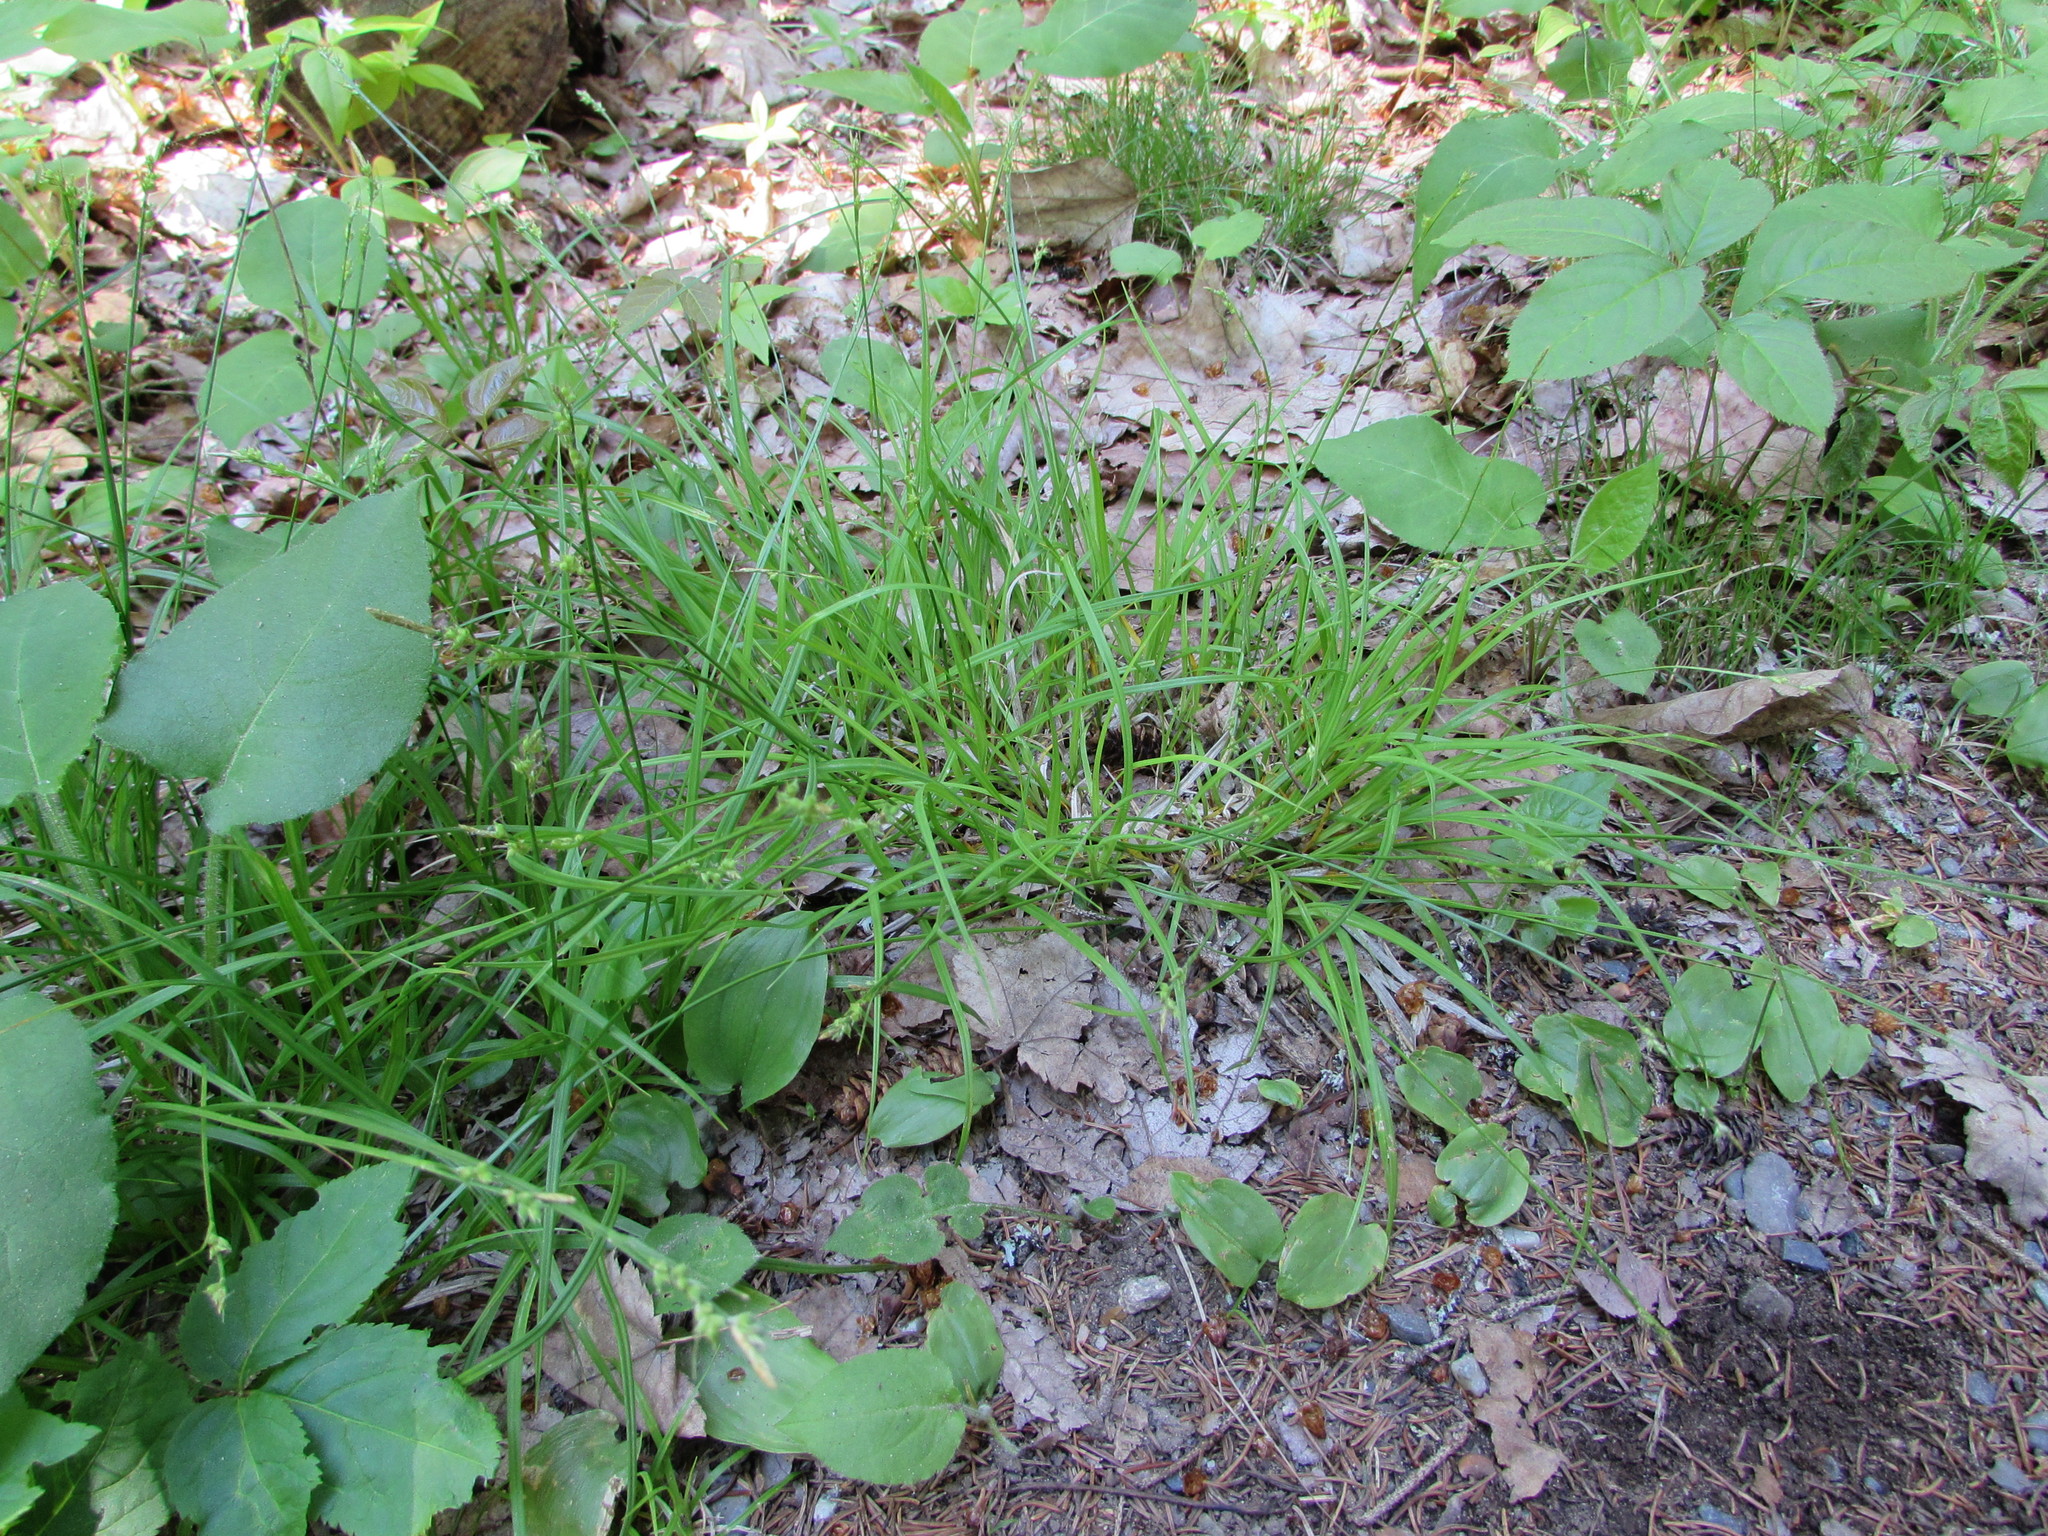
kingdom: Plantae
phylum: Tracheophyta
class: Liliopsida
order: Poales
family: Cyperaceae
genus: Carex
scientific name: Carex communis
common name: Colonial oak sedge
